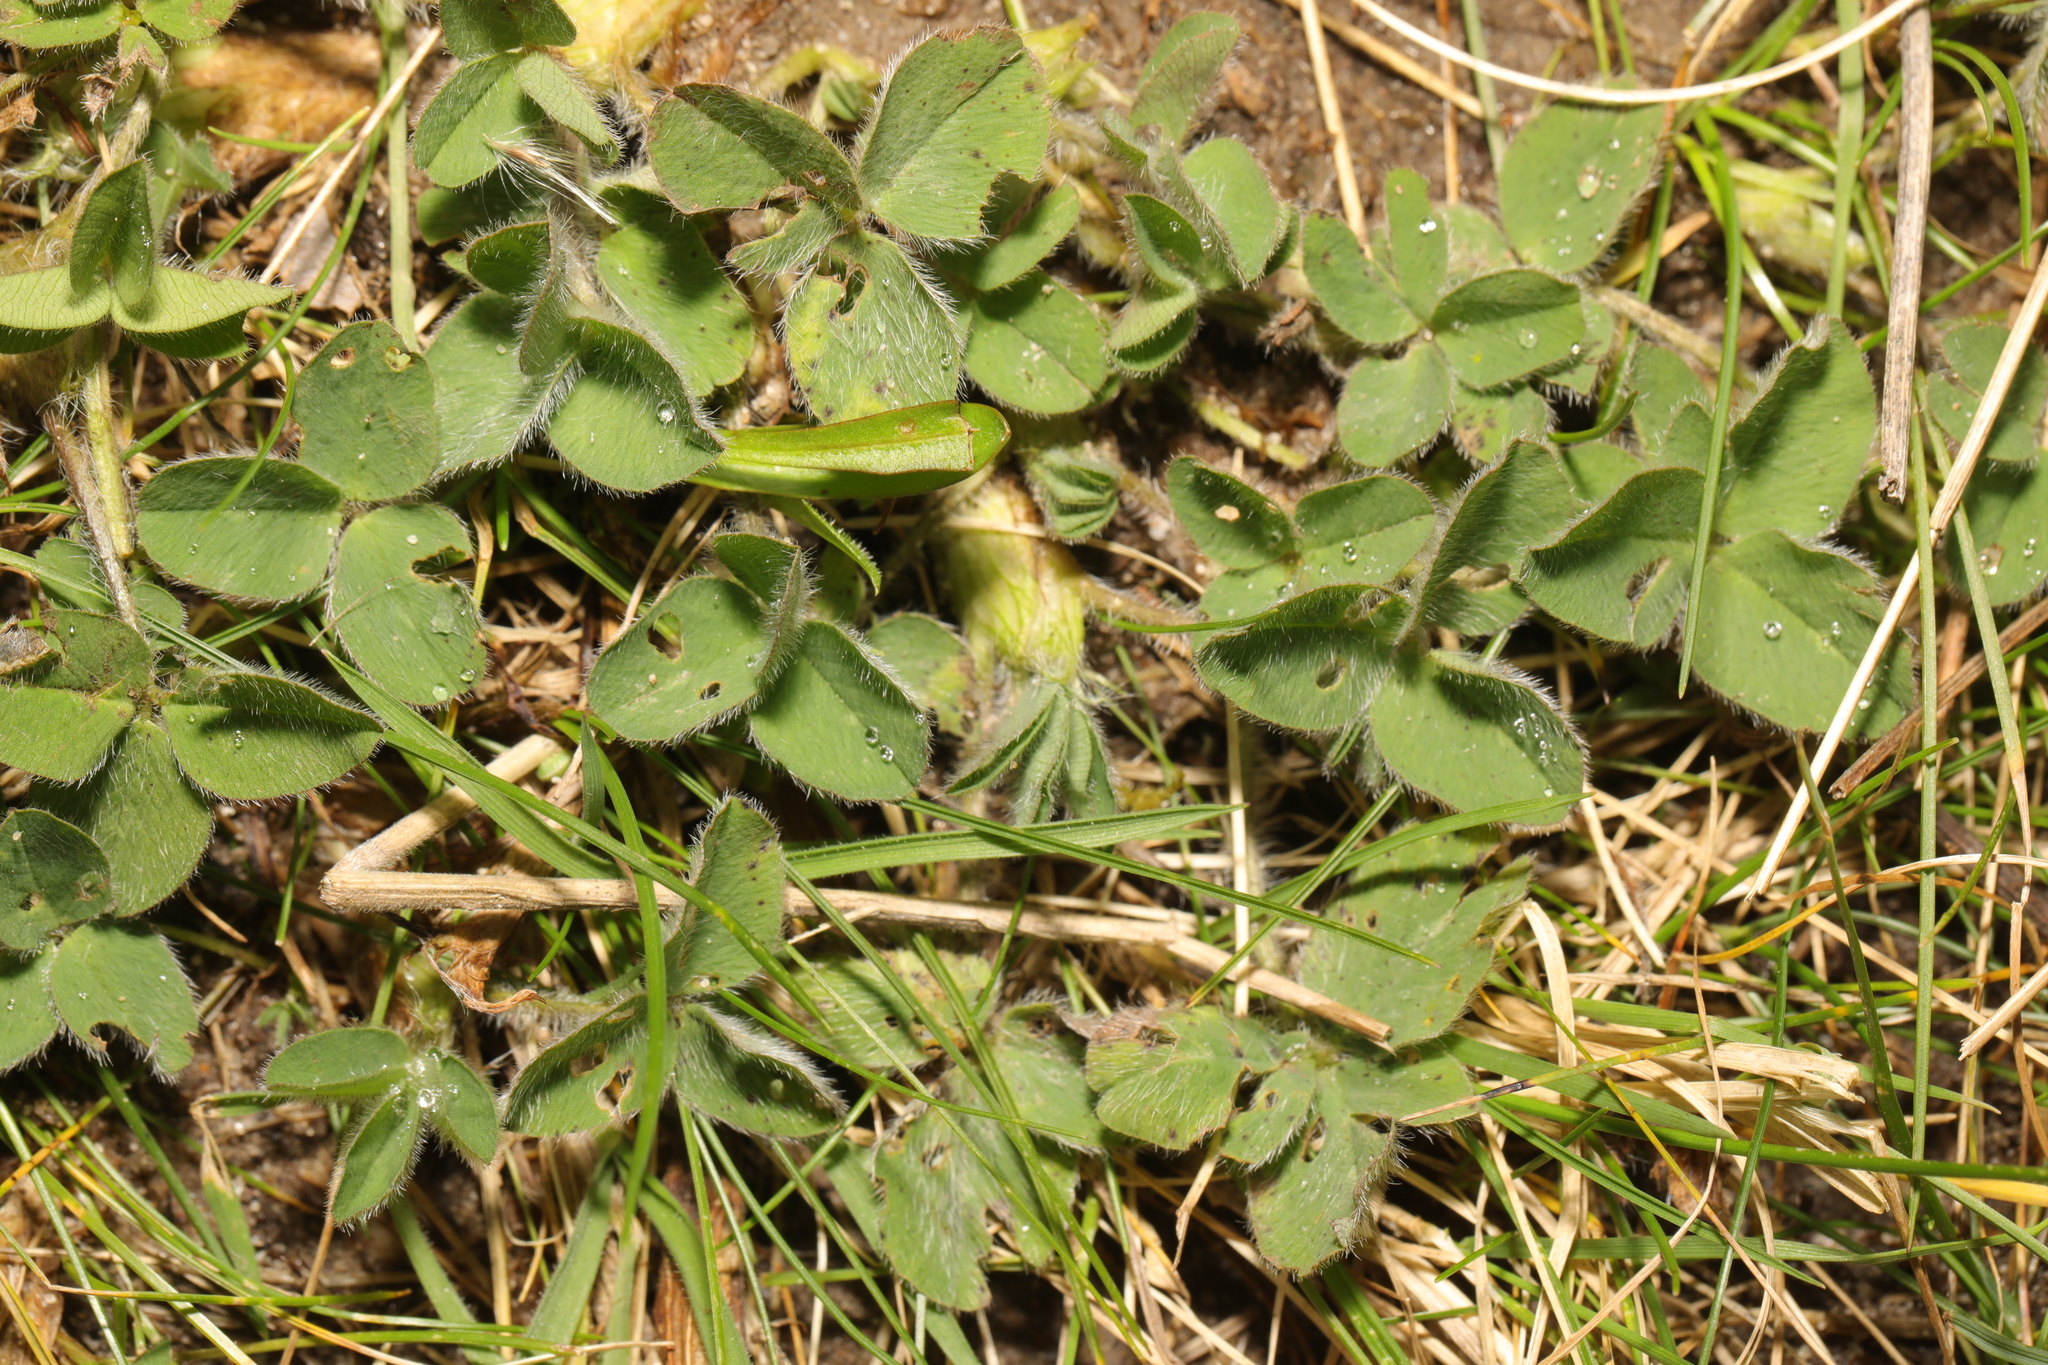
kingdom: Plantae
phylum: Tracheophyta
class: Magnoliopsida
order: Fabales
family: Fabaceae
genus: Trifolium
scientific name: Trifolium pratense
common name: Red clover
